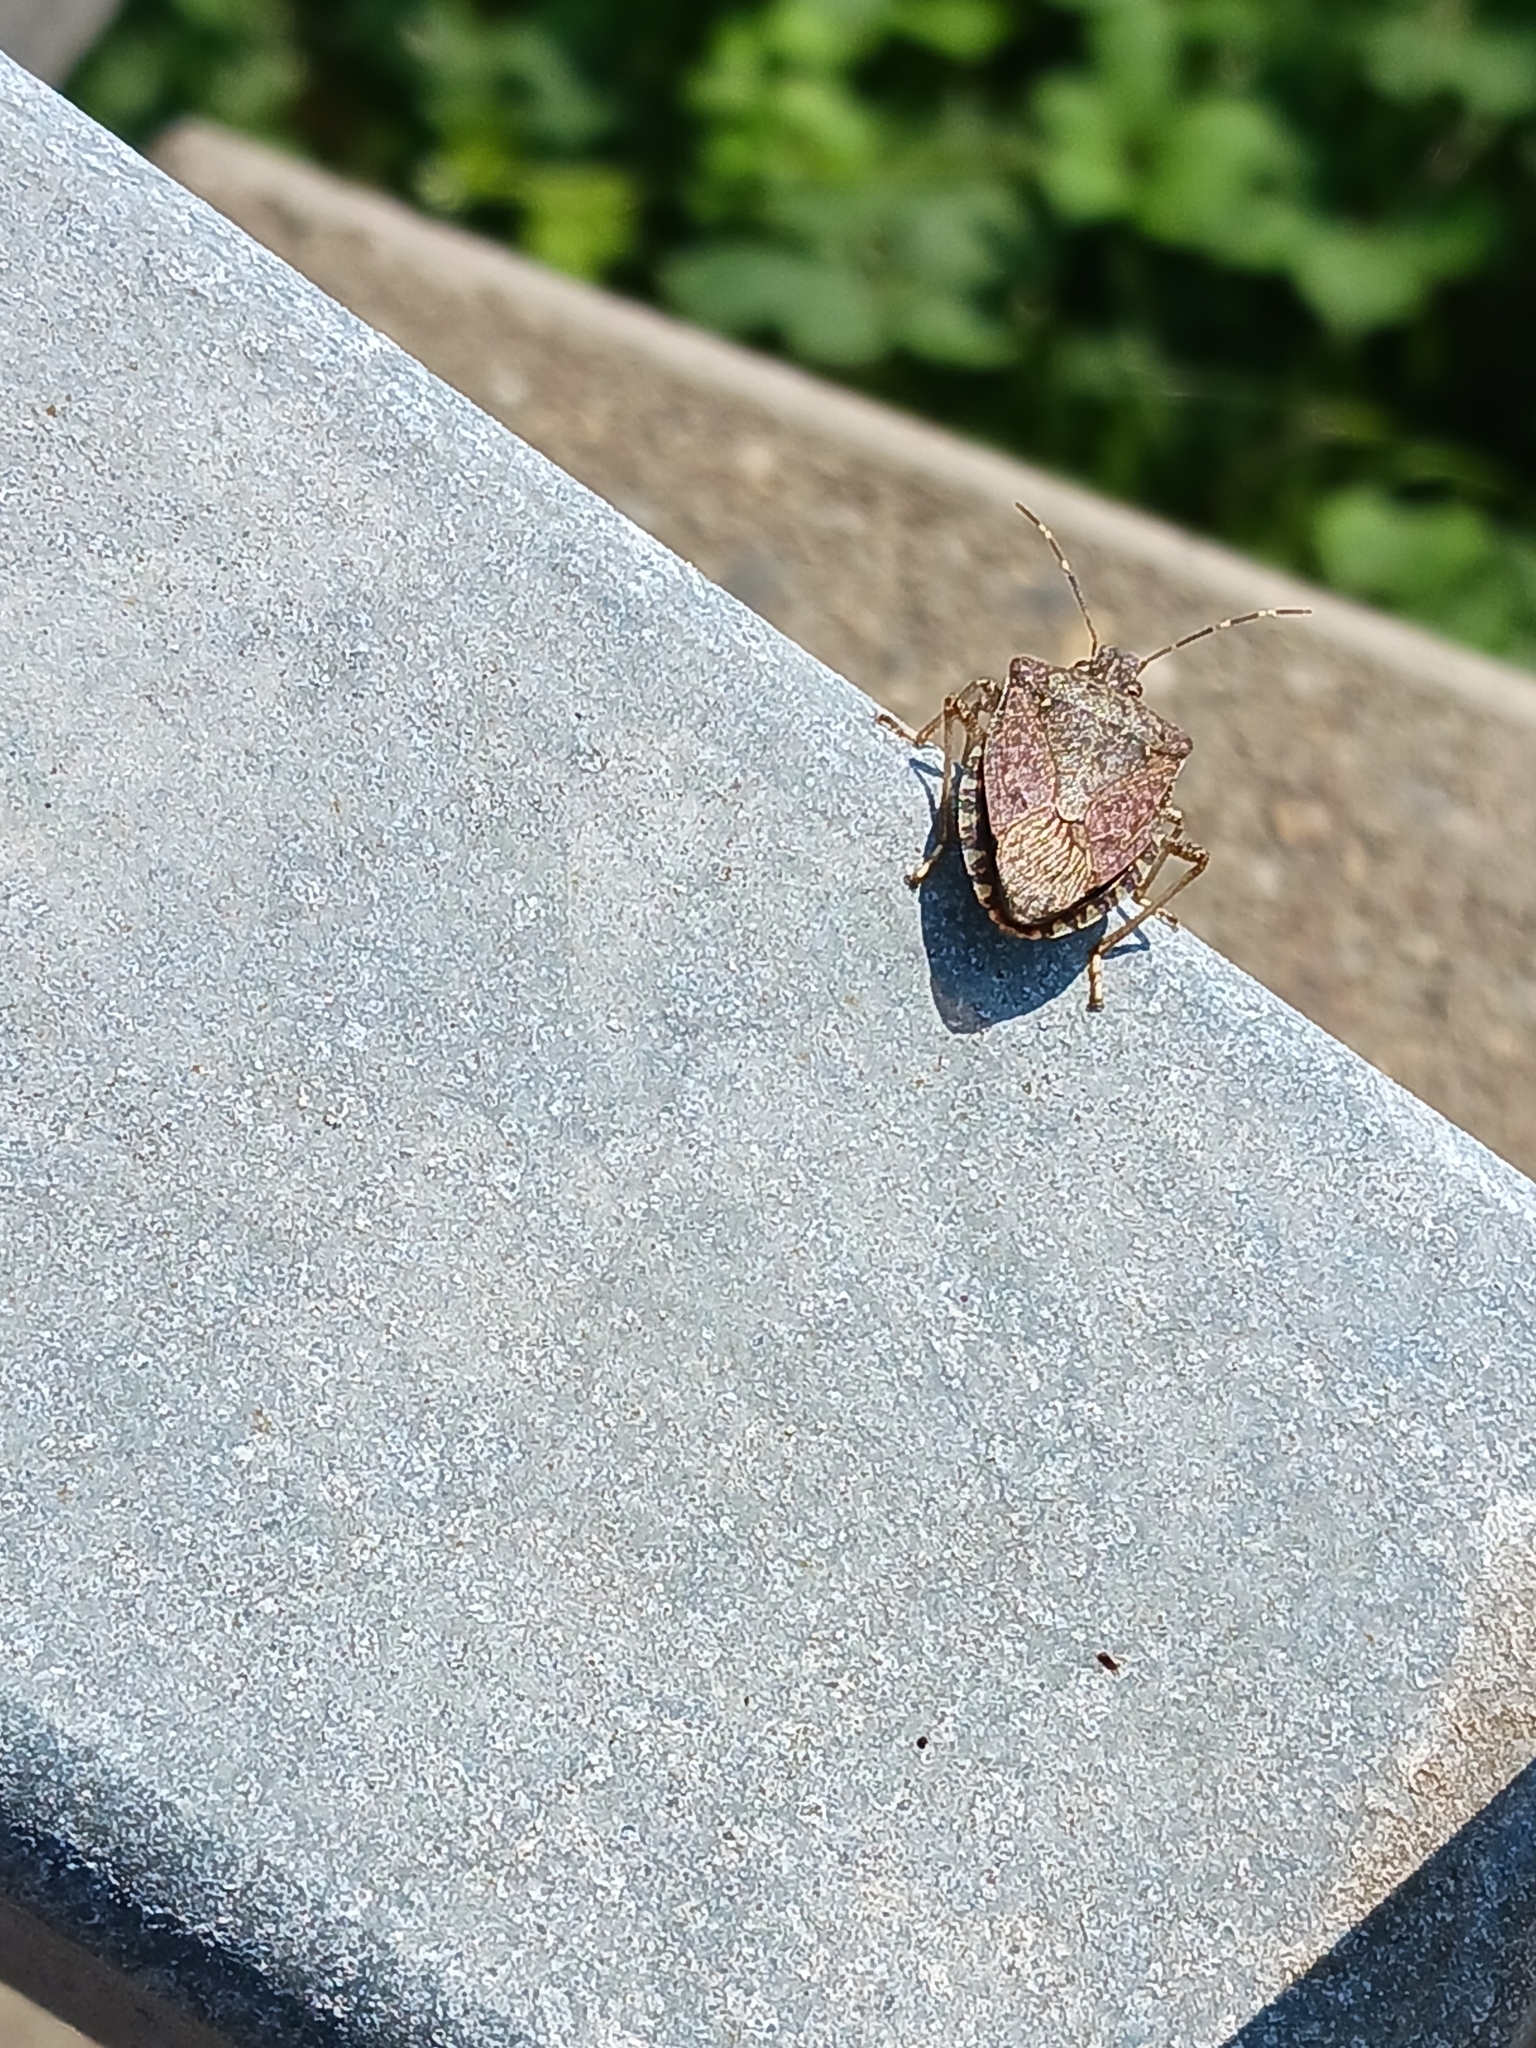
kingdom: Animalia
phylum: Arthropoda
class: Insecta
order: Hemiptera
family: Pentatomidae
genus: Halyomorpha
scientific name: Halyomorpha halys
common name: Brown marmorated stink bug
